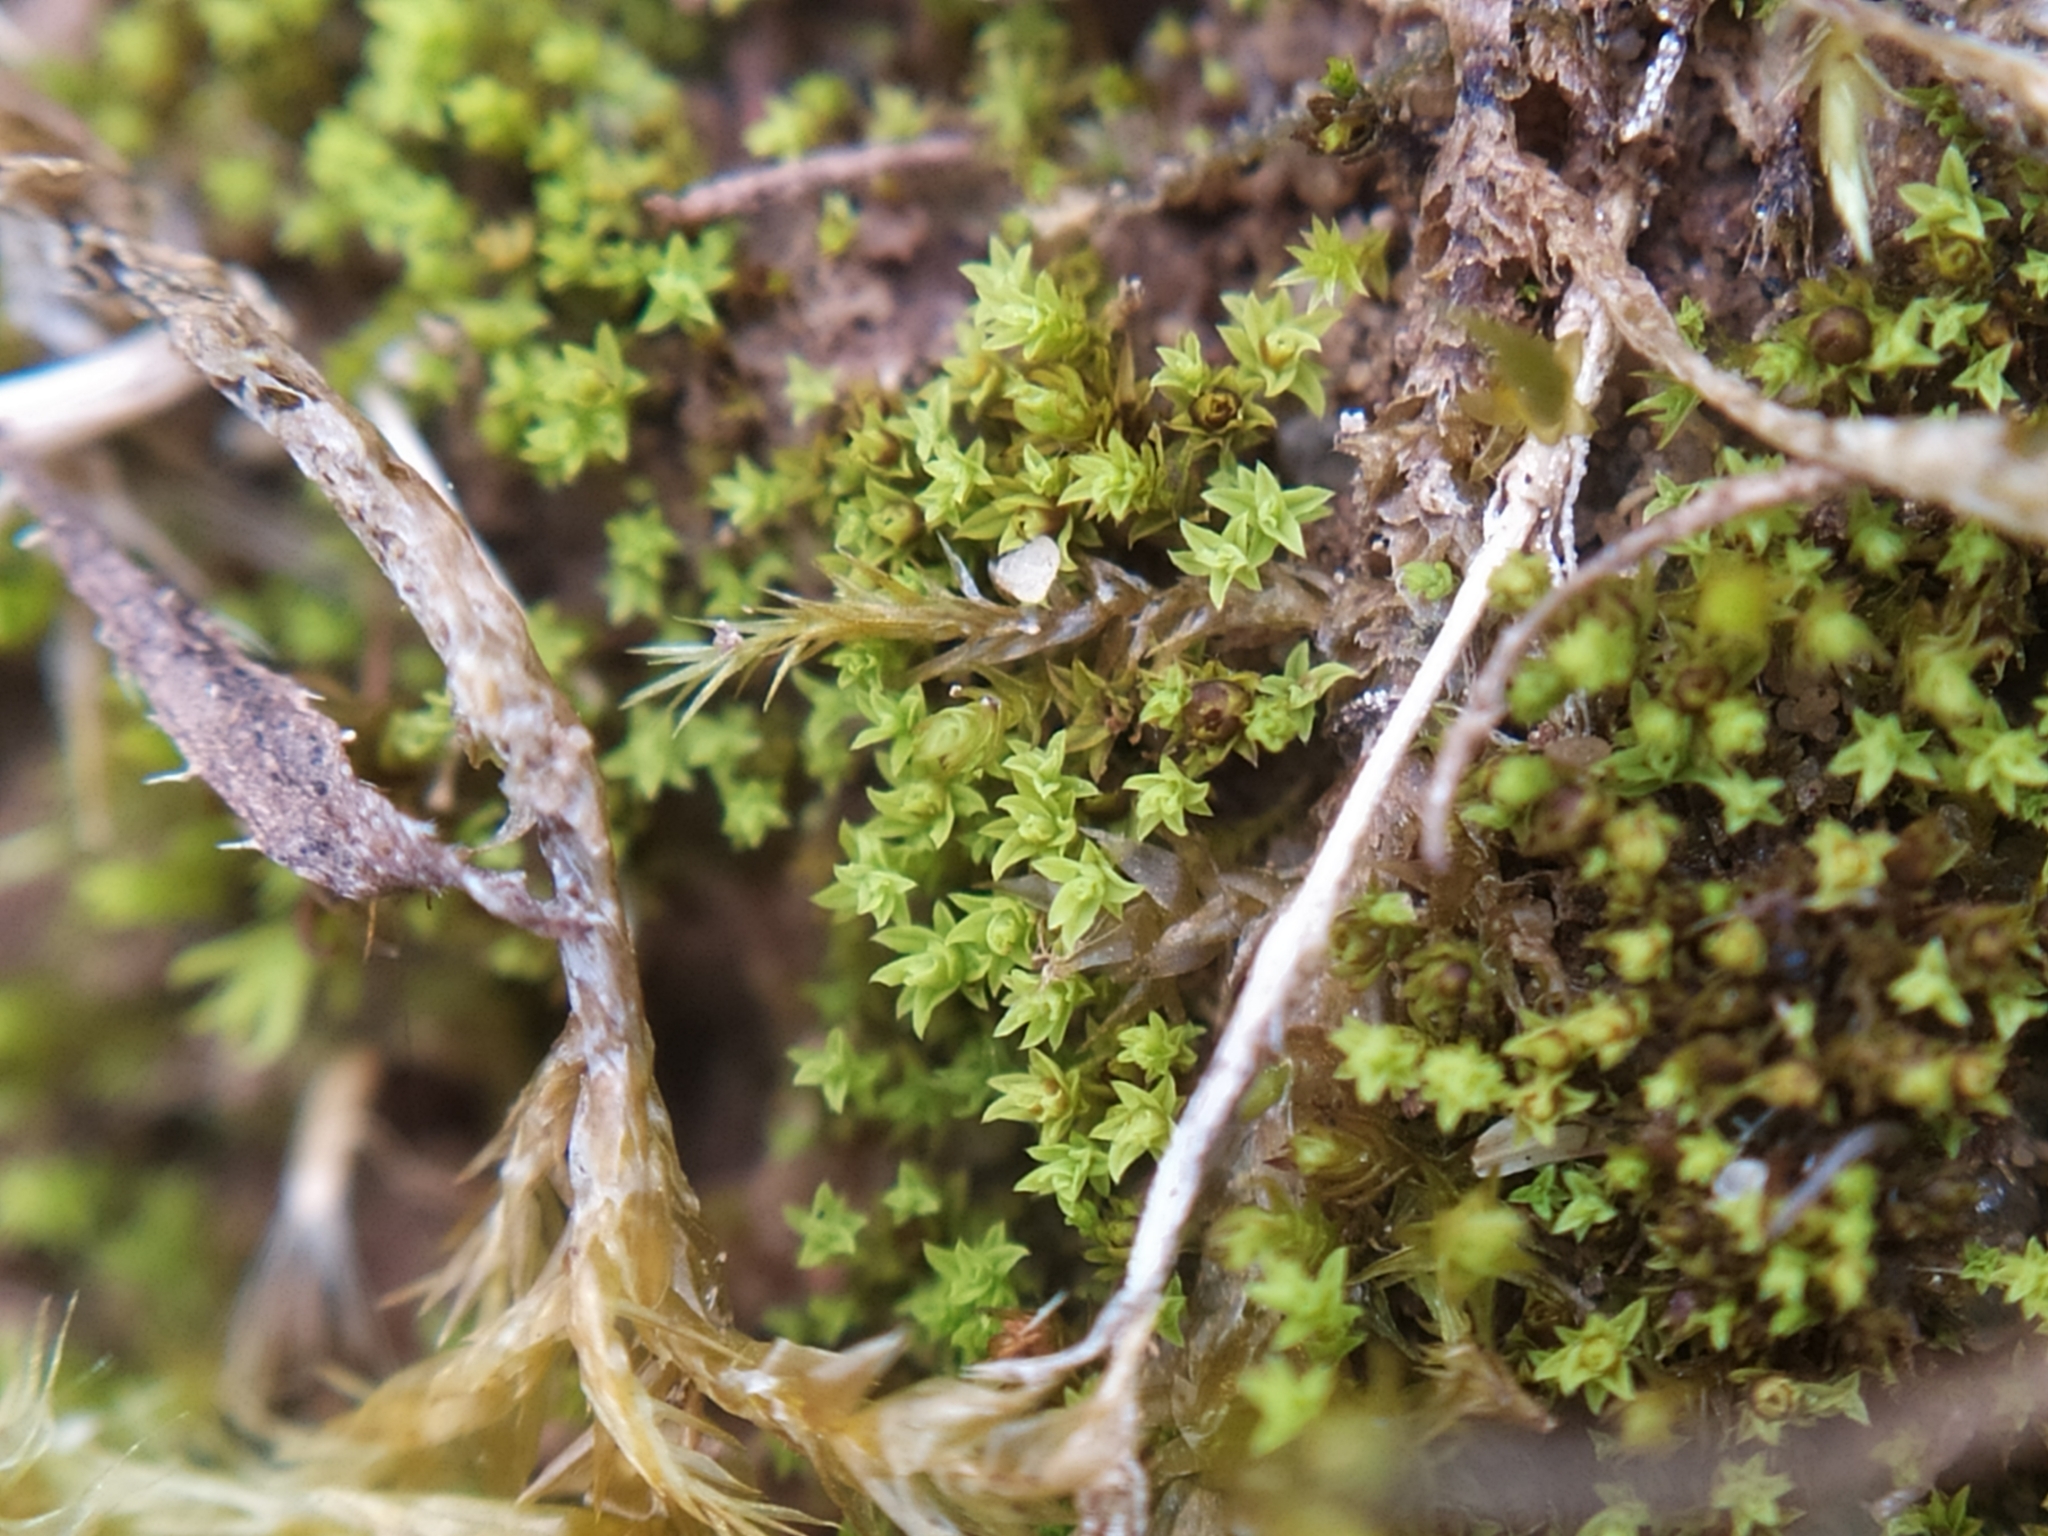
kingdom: Plantae
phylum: Bryophyta
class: Bryopsida
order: Pottiales
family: Pottiaceae
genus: Barbula
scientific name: Barbula unguiculata
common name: Prickly beard moss
